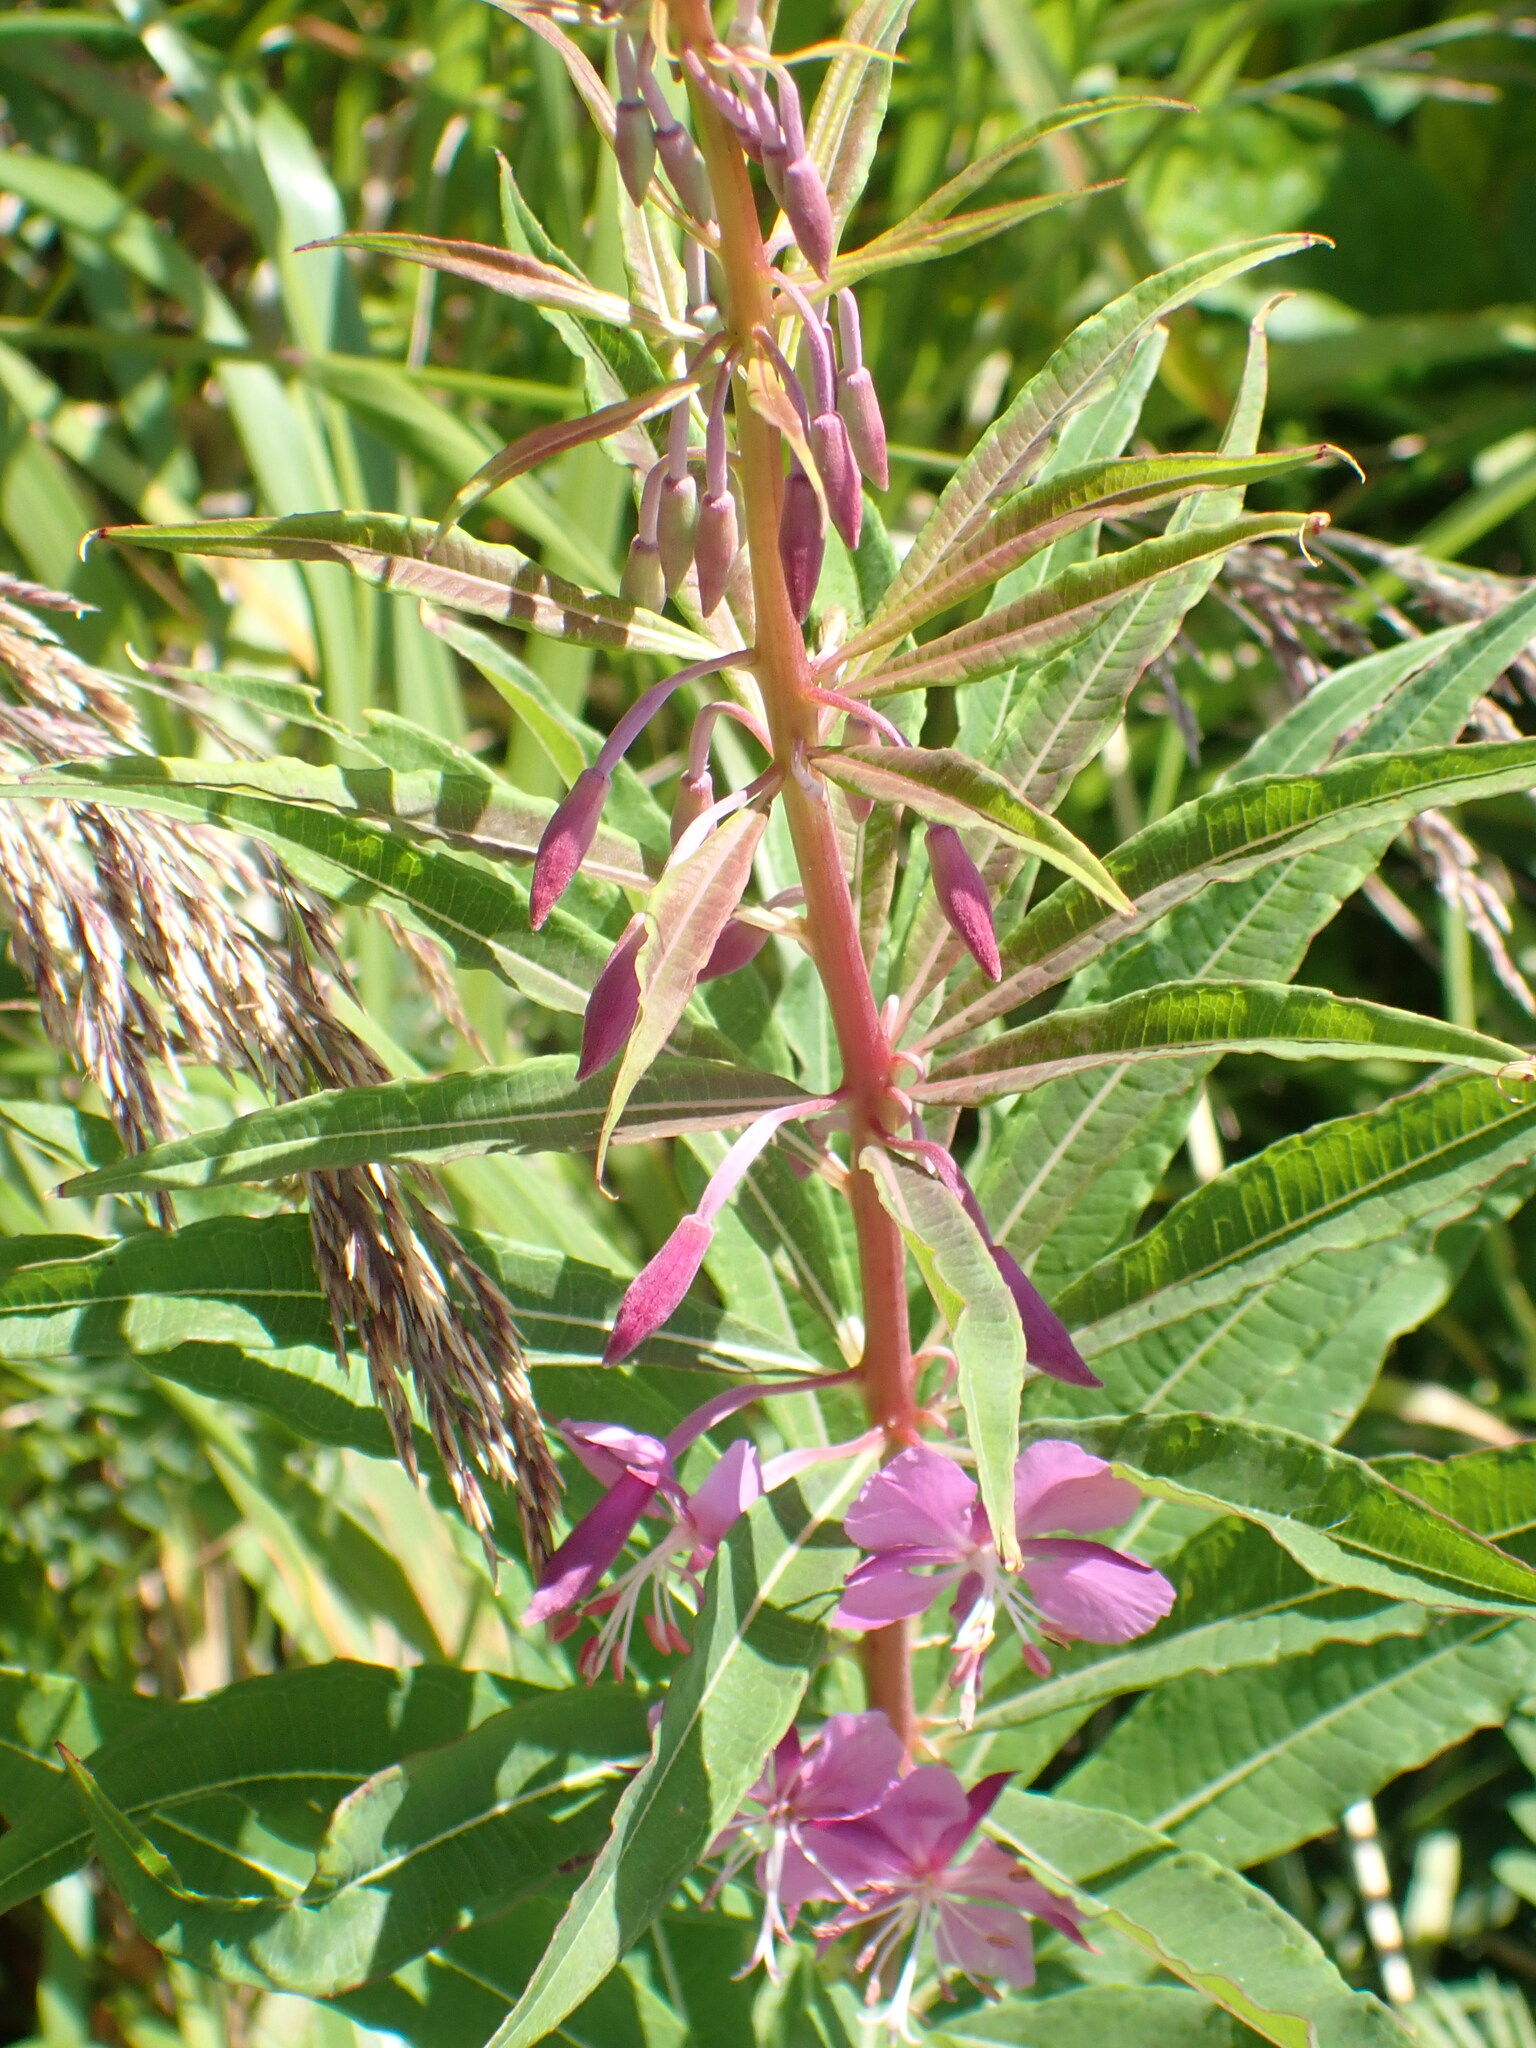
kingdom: Plantae
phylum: Tracheophyta
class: Magnoliopsida
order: Myrtales
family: Onagraceae
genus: Chamaenerion
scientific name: Chamaenerion angustifolium
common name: Fireweed
